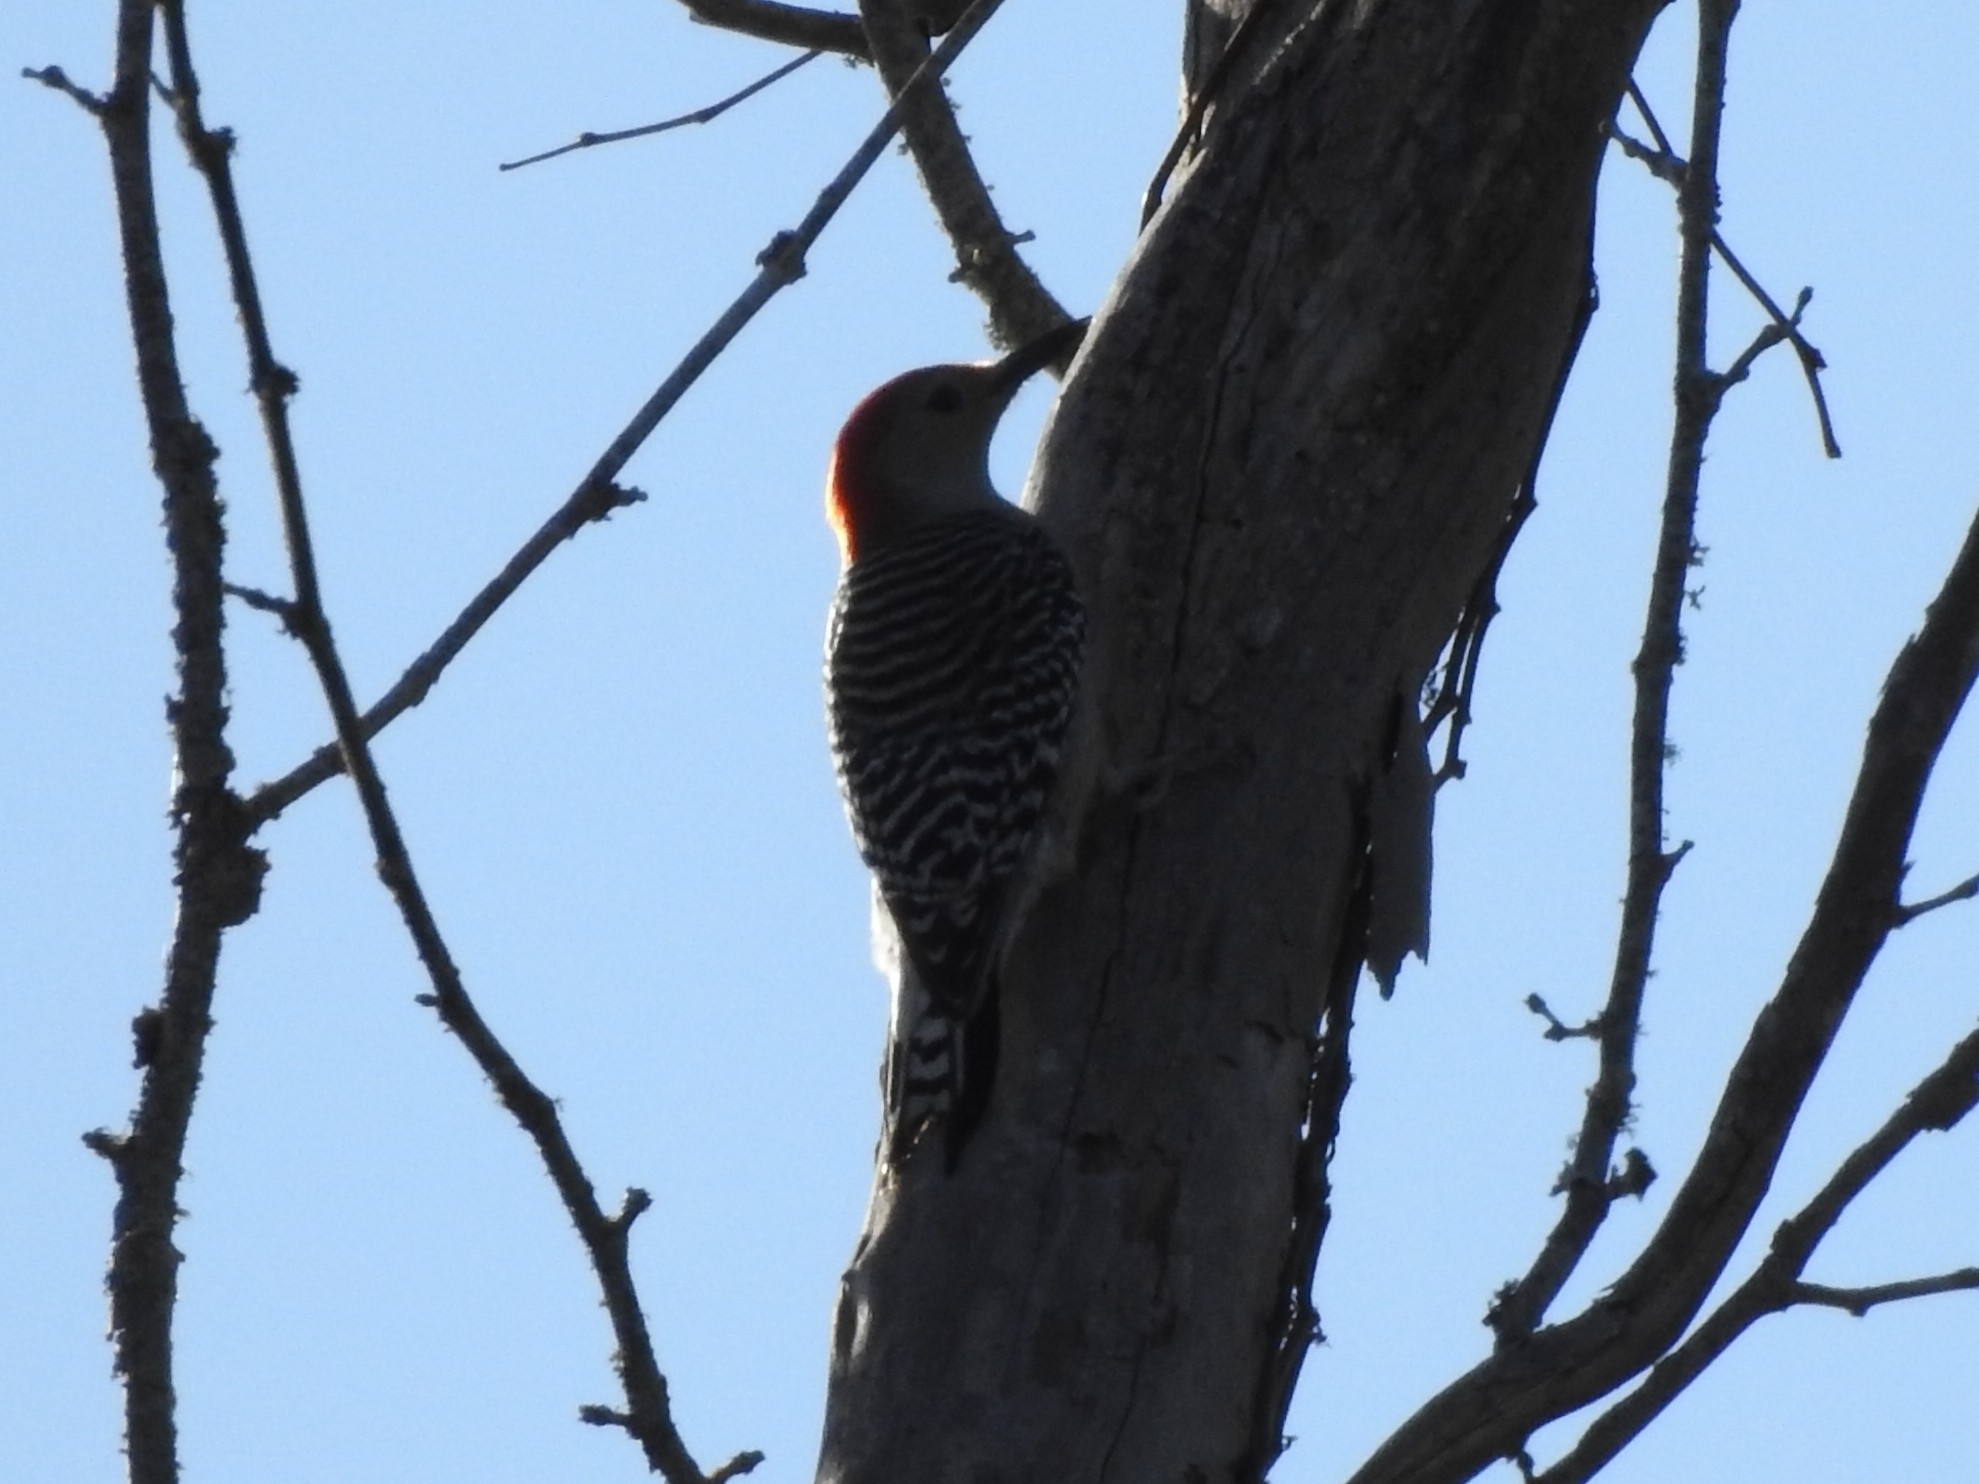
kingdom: Animalia
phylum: Chordata
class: Aves
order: Piciformes
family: Picidae
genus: Melanerpes
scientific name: Melanerpes carolinus
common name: Red-bellied woodpecker
